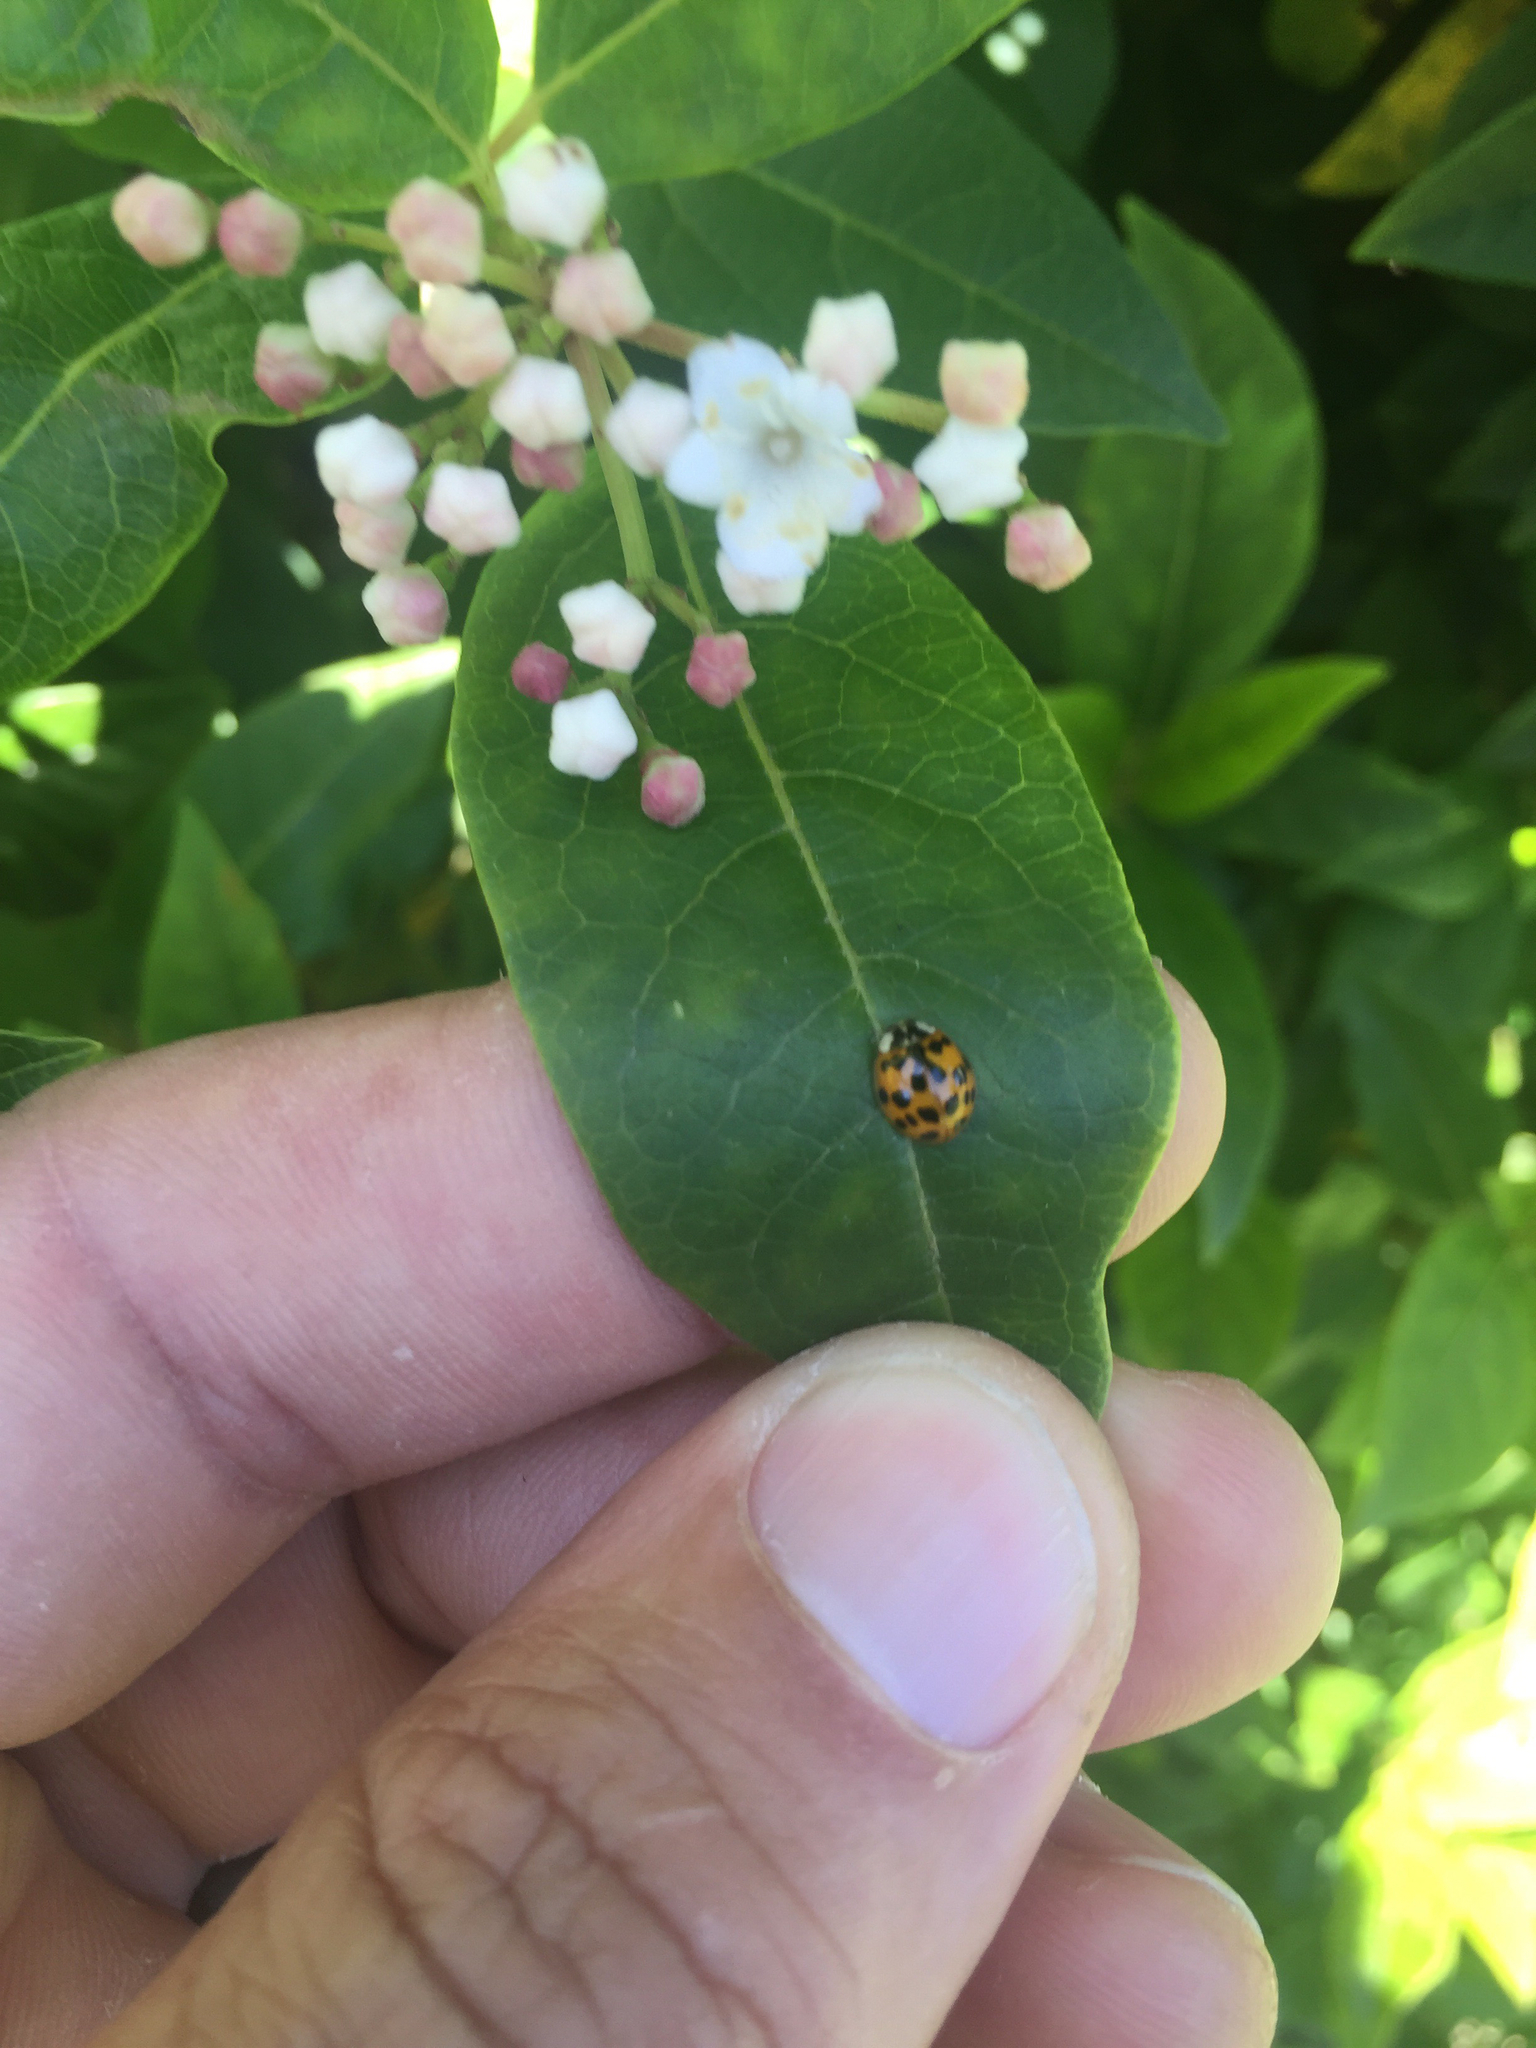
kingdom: Animalia
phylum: Arthropoda
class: Insecta
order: Coleoptera
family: Coccinellidae
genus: Harmonia
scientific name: Harmonia axyridis
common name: Harlequin ladybird
